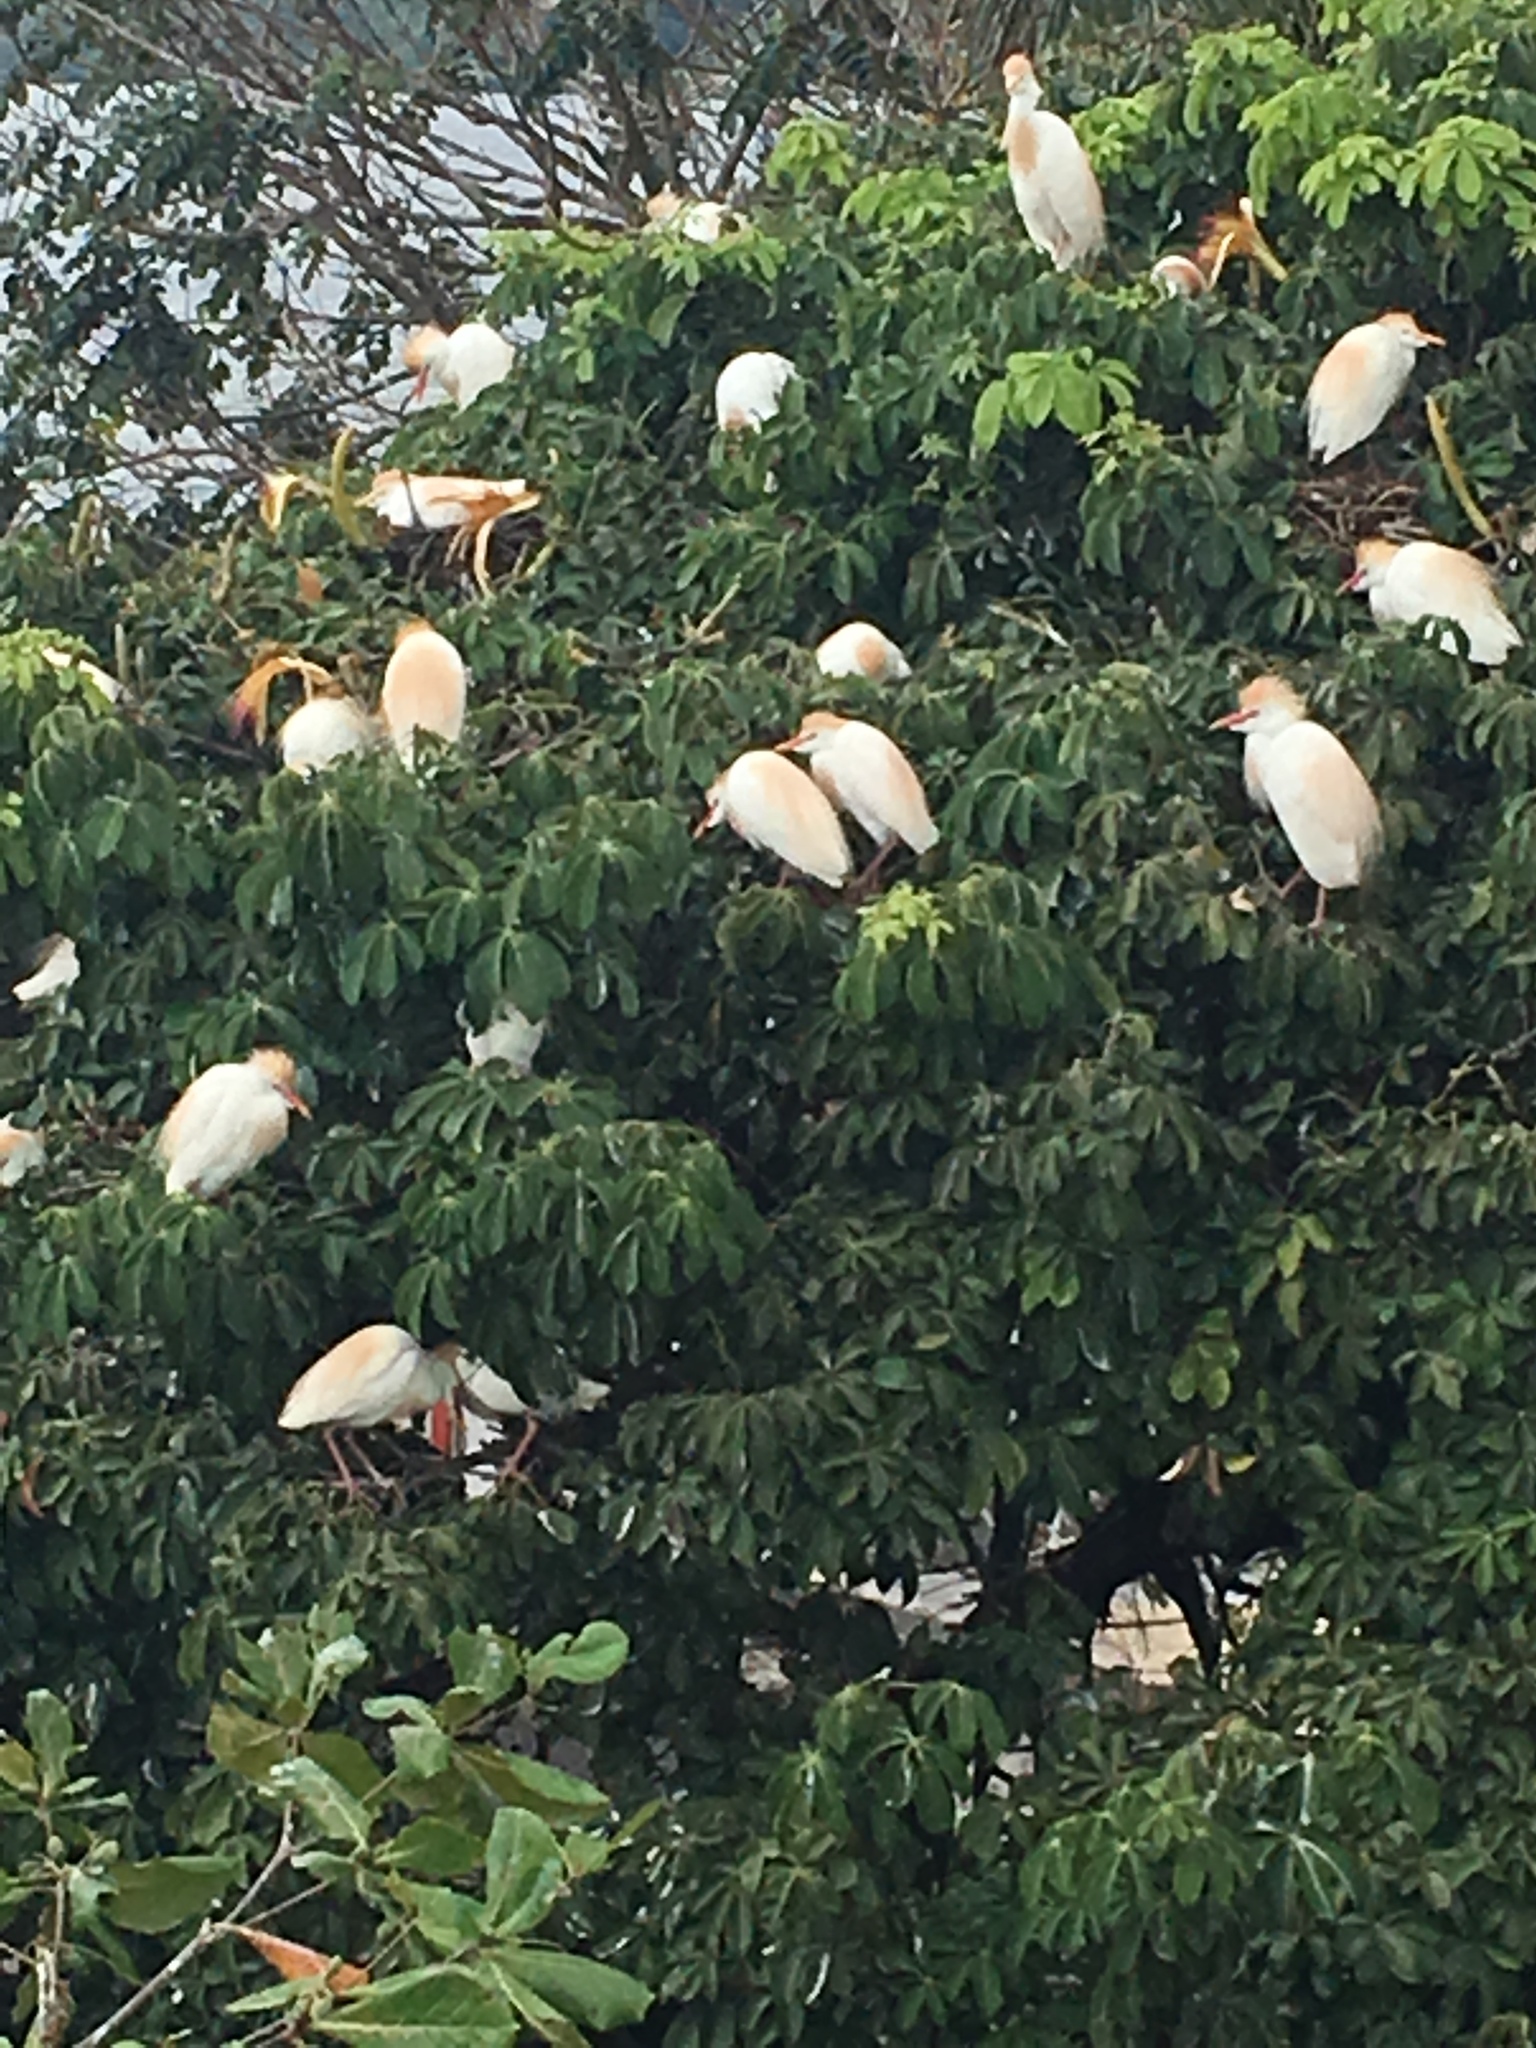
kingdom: Animalia
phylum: Chordata
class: Aves
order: Pelecaniformes
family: Ardeidae
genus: Bubulcus
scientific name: Bubulcus ibis
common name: Cattle egret
